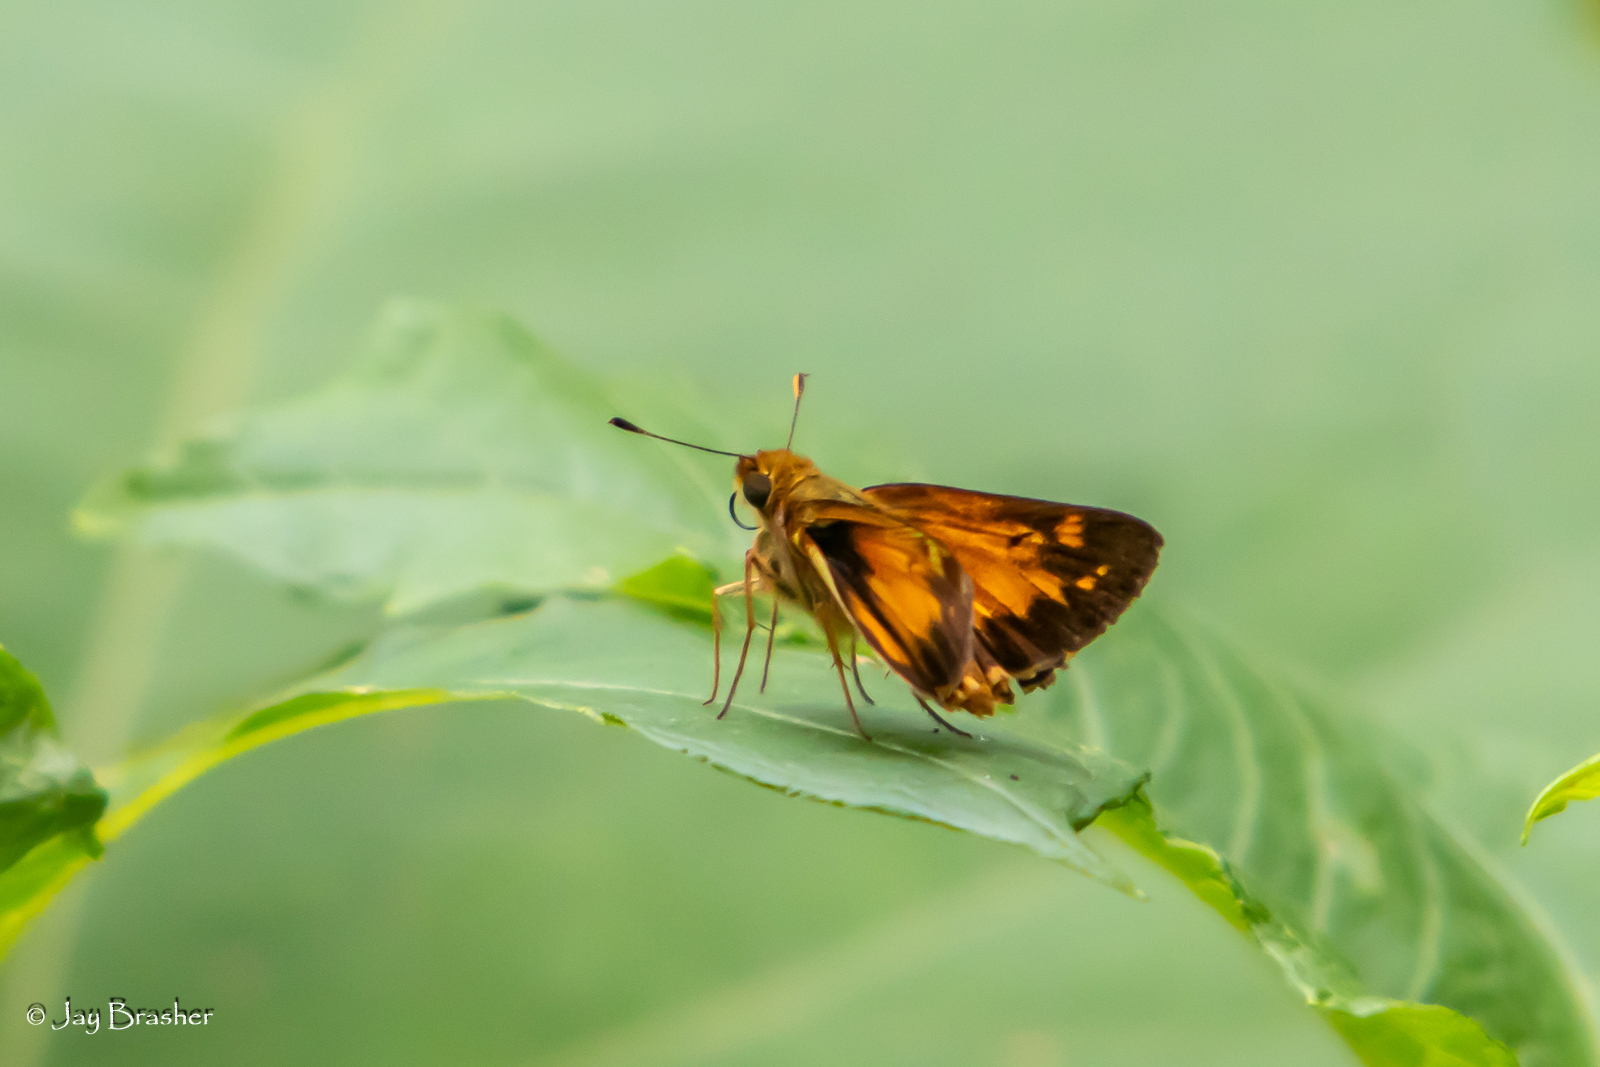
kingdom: Animalia
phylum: Arthropoda
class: Insecta
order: Lepidoptera
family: Hesperiidae
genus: Lon
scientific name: Lon zabulon
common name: Zabulon skipper
